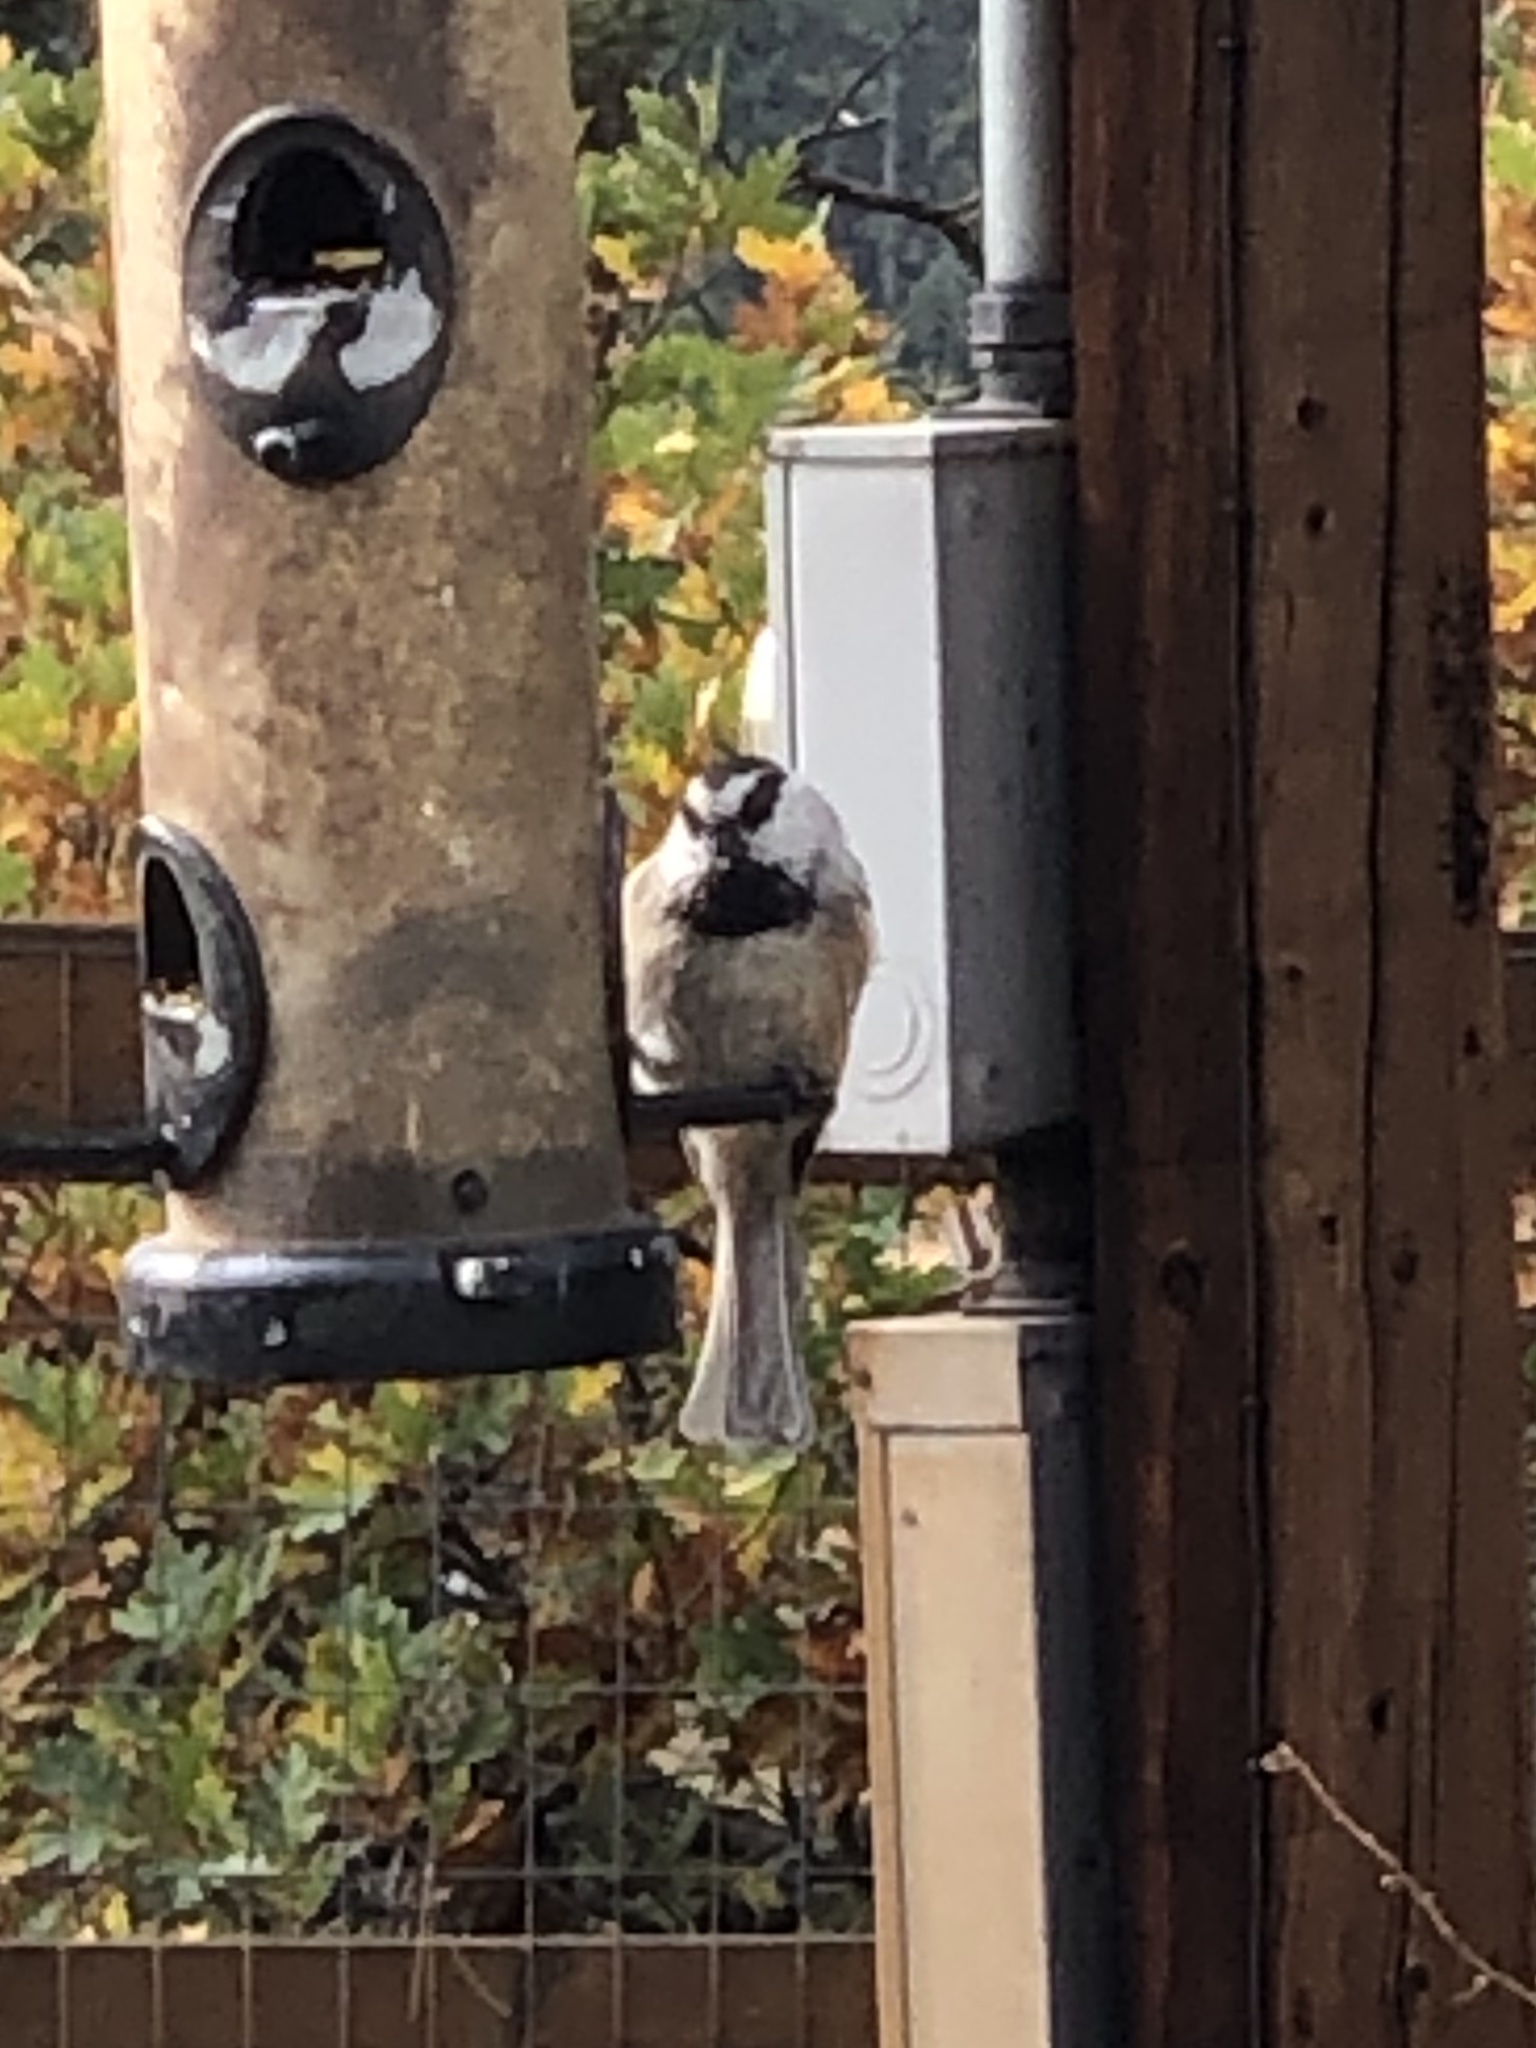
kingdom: Animalia
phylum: Chordata
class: Aves
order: Passeriformes
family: Paridae
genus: Poecile
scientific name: Poecile gambeli
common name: Mountain chickadee
